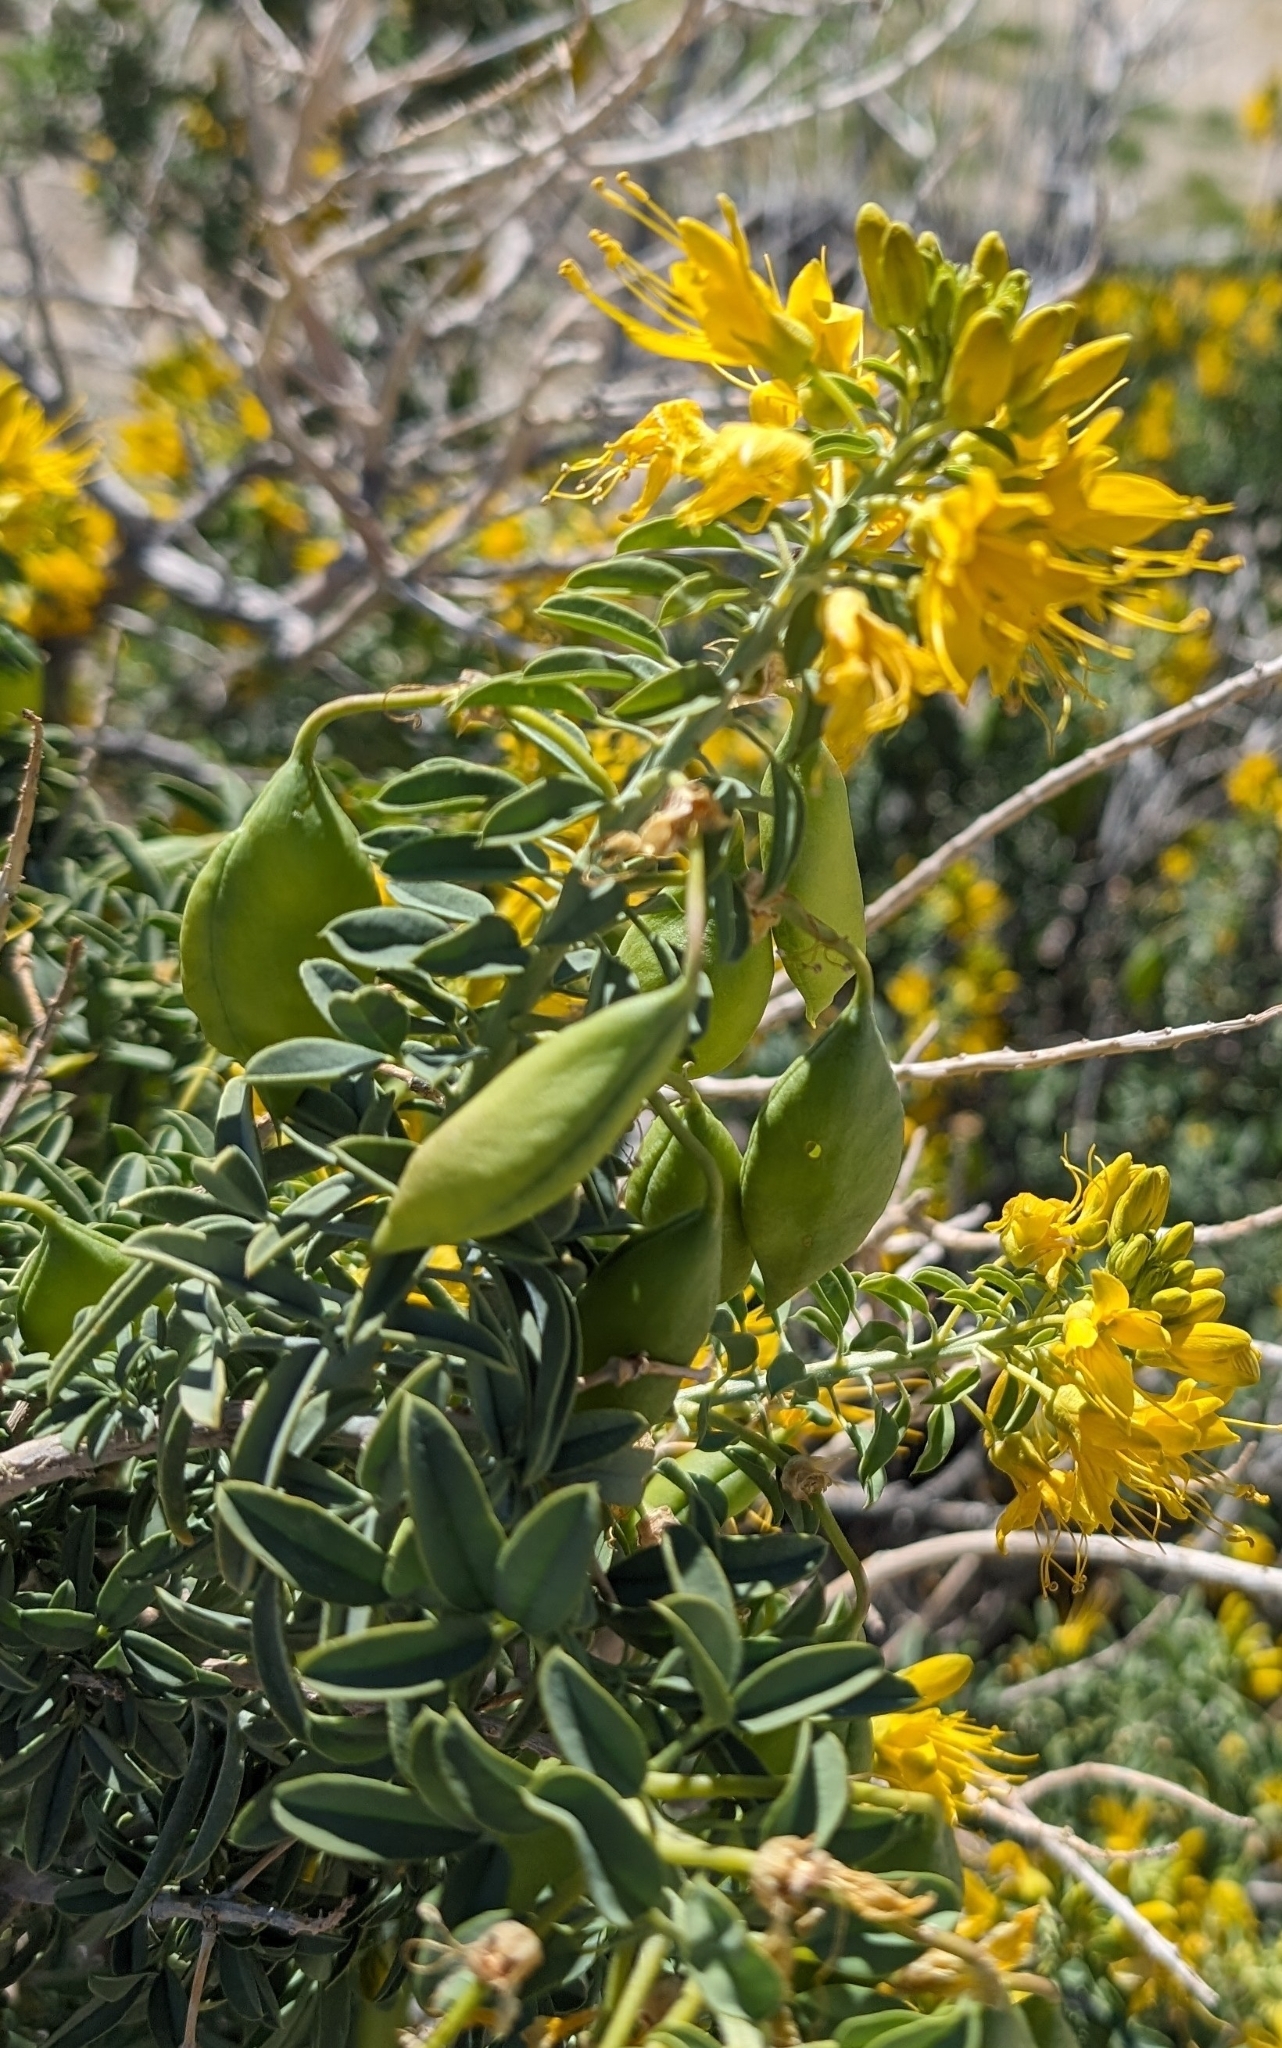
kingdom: Plantae
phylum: Tracheophyta
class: Magnoliopsida
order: Brassicales
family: Cleomaceae
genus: Cleomella
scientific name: Cleomella arborea
